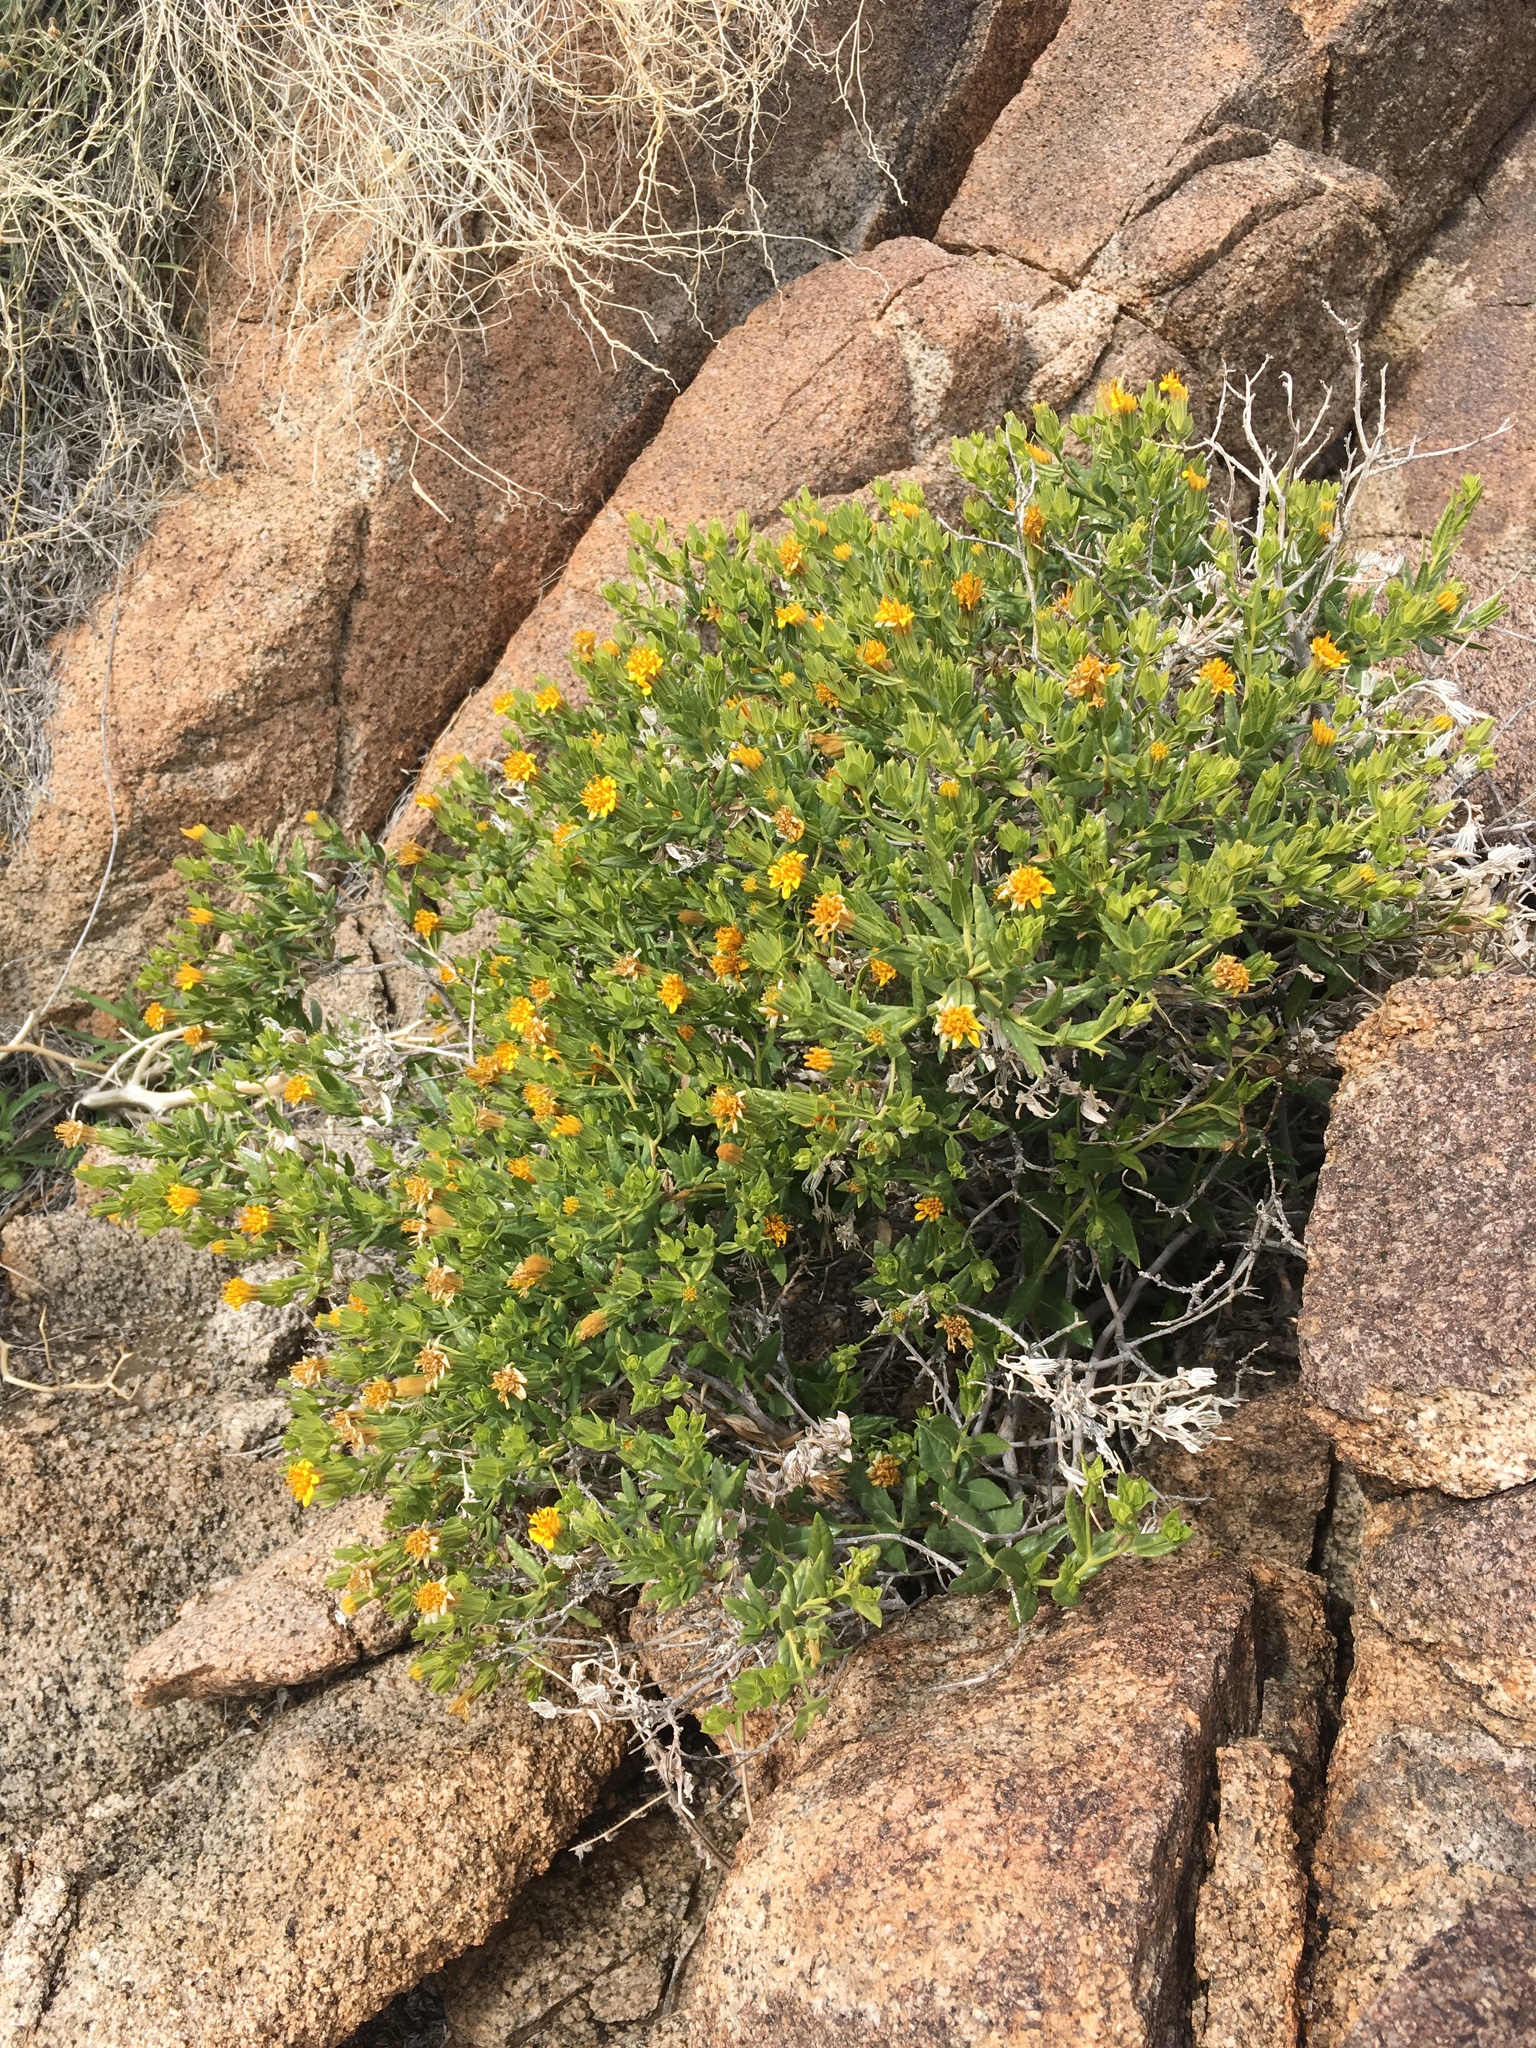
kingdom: Plantae
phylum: Tracheophyta
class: Magnoliopsida
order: Asterales
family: Asteraceae
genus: Trixis
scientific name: Trixis californica
